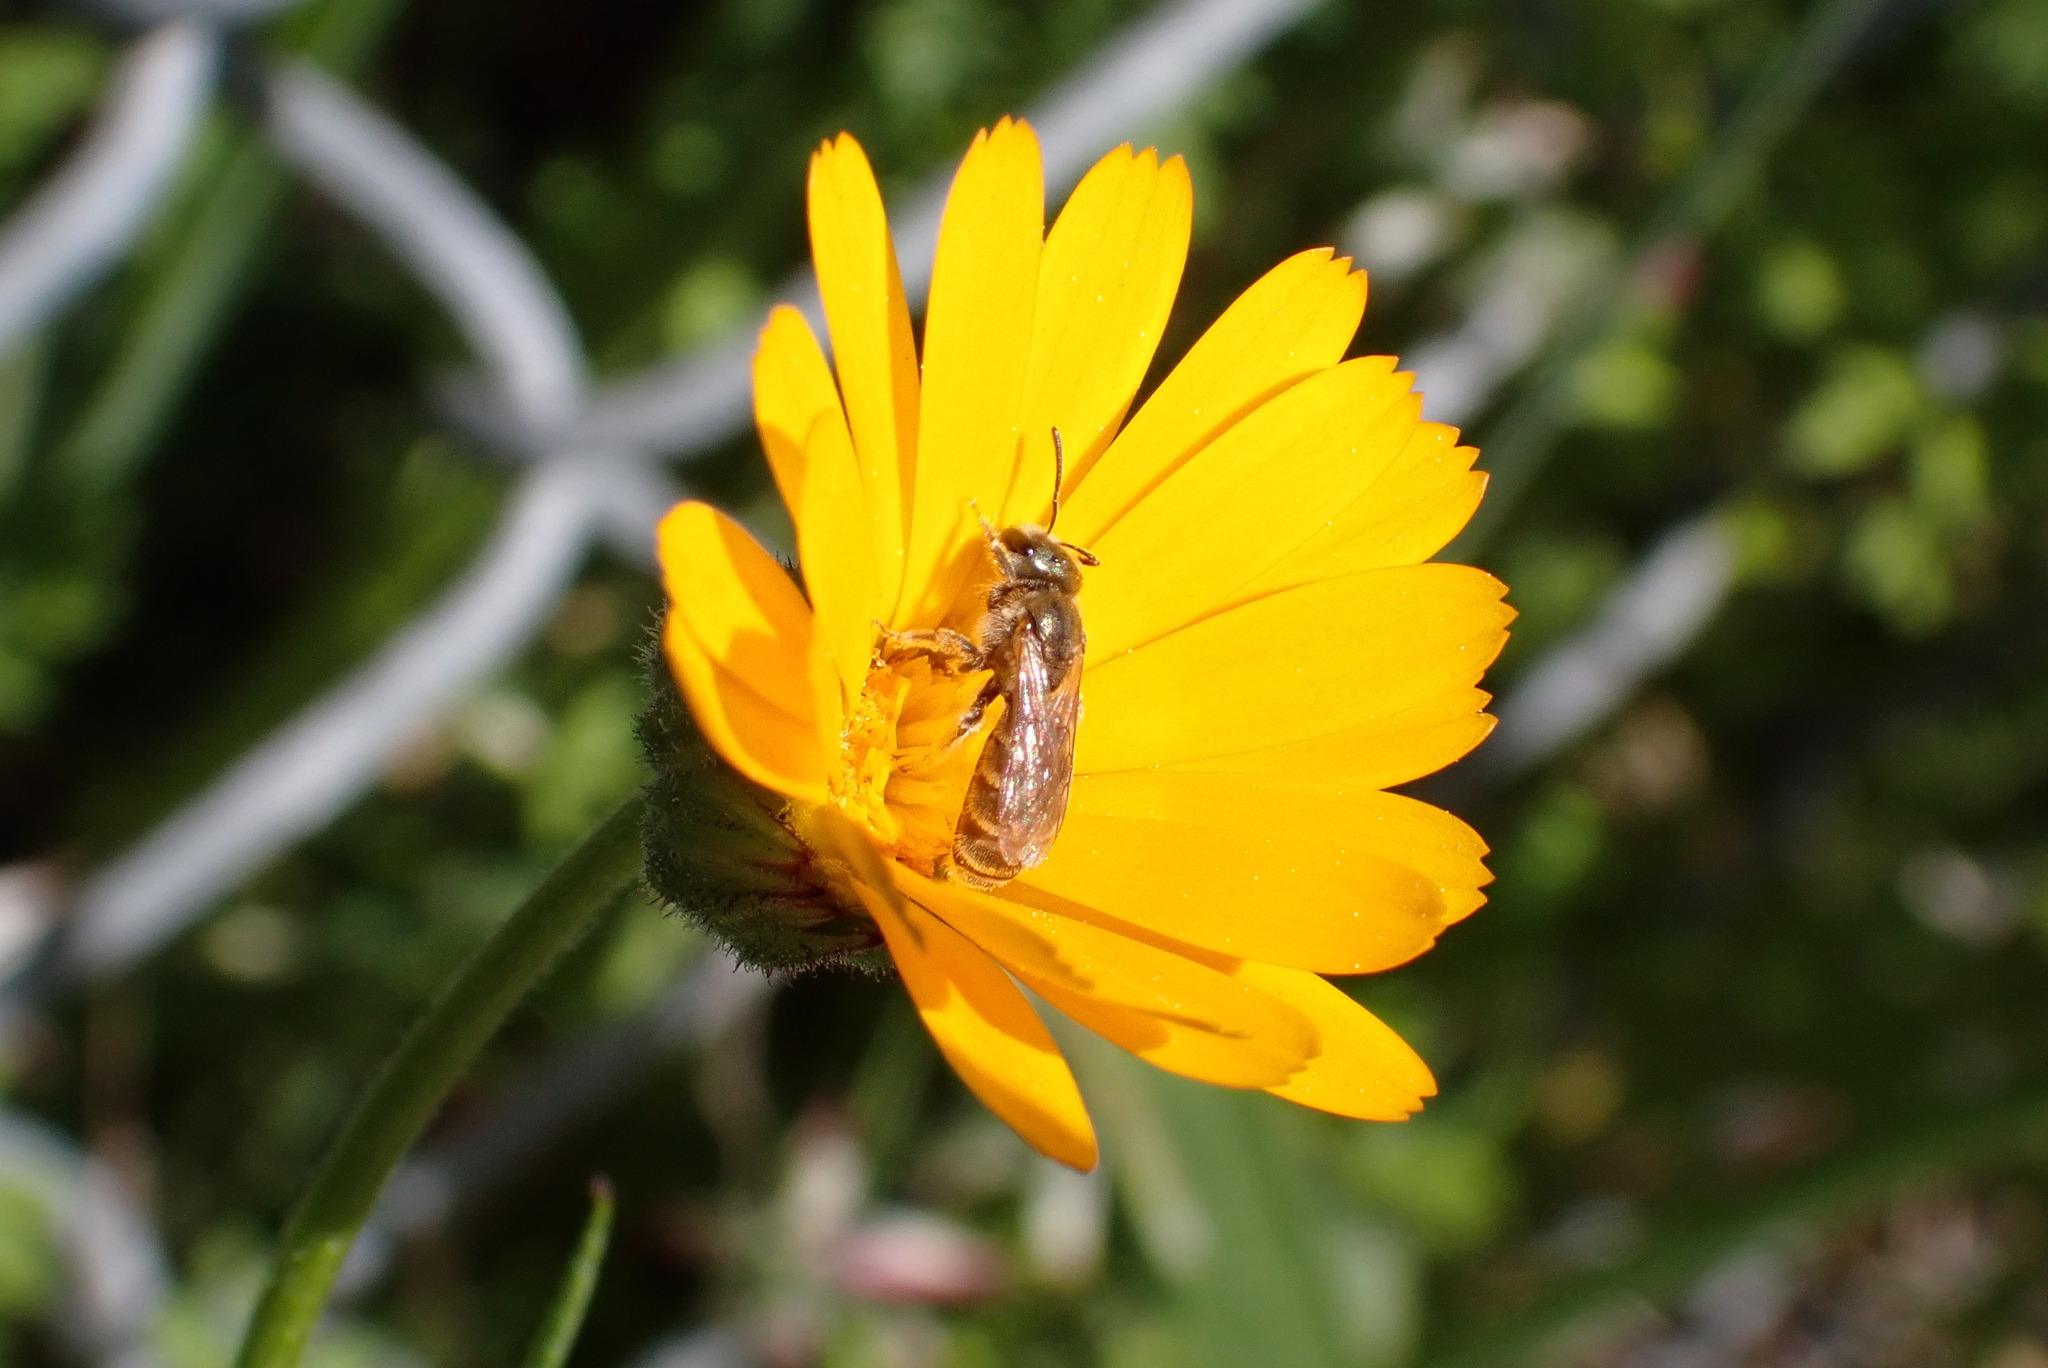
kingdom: Animalia
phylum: Arthropoda
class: Insecta
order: Hymenoptera
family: Halictidae
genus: Halictus
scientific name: Halictus tripartitus
